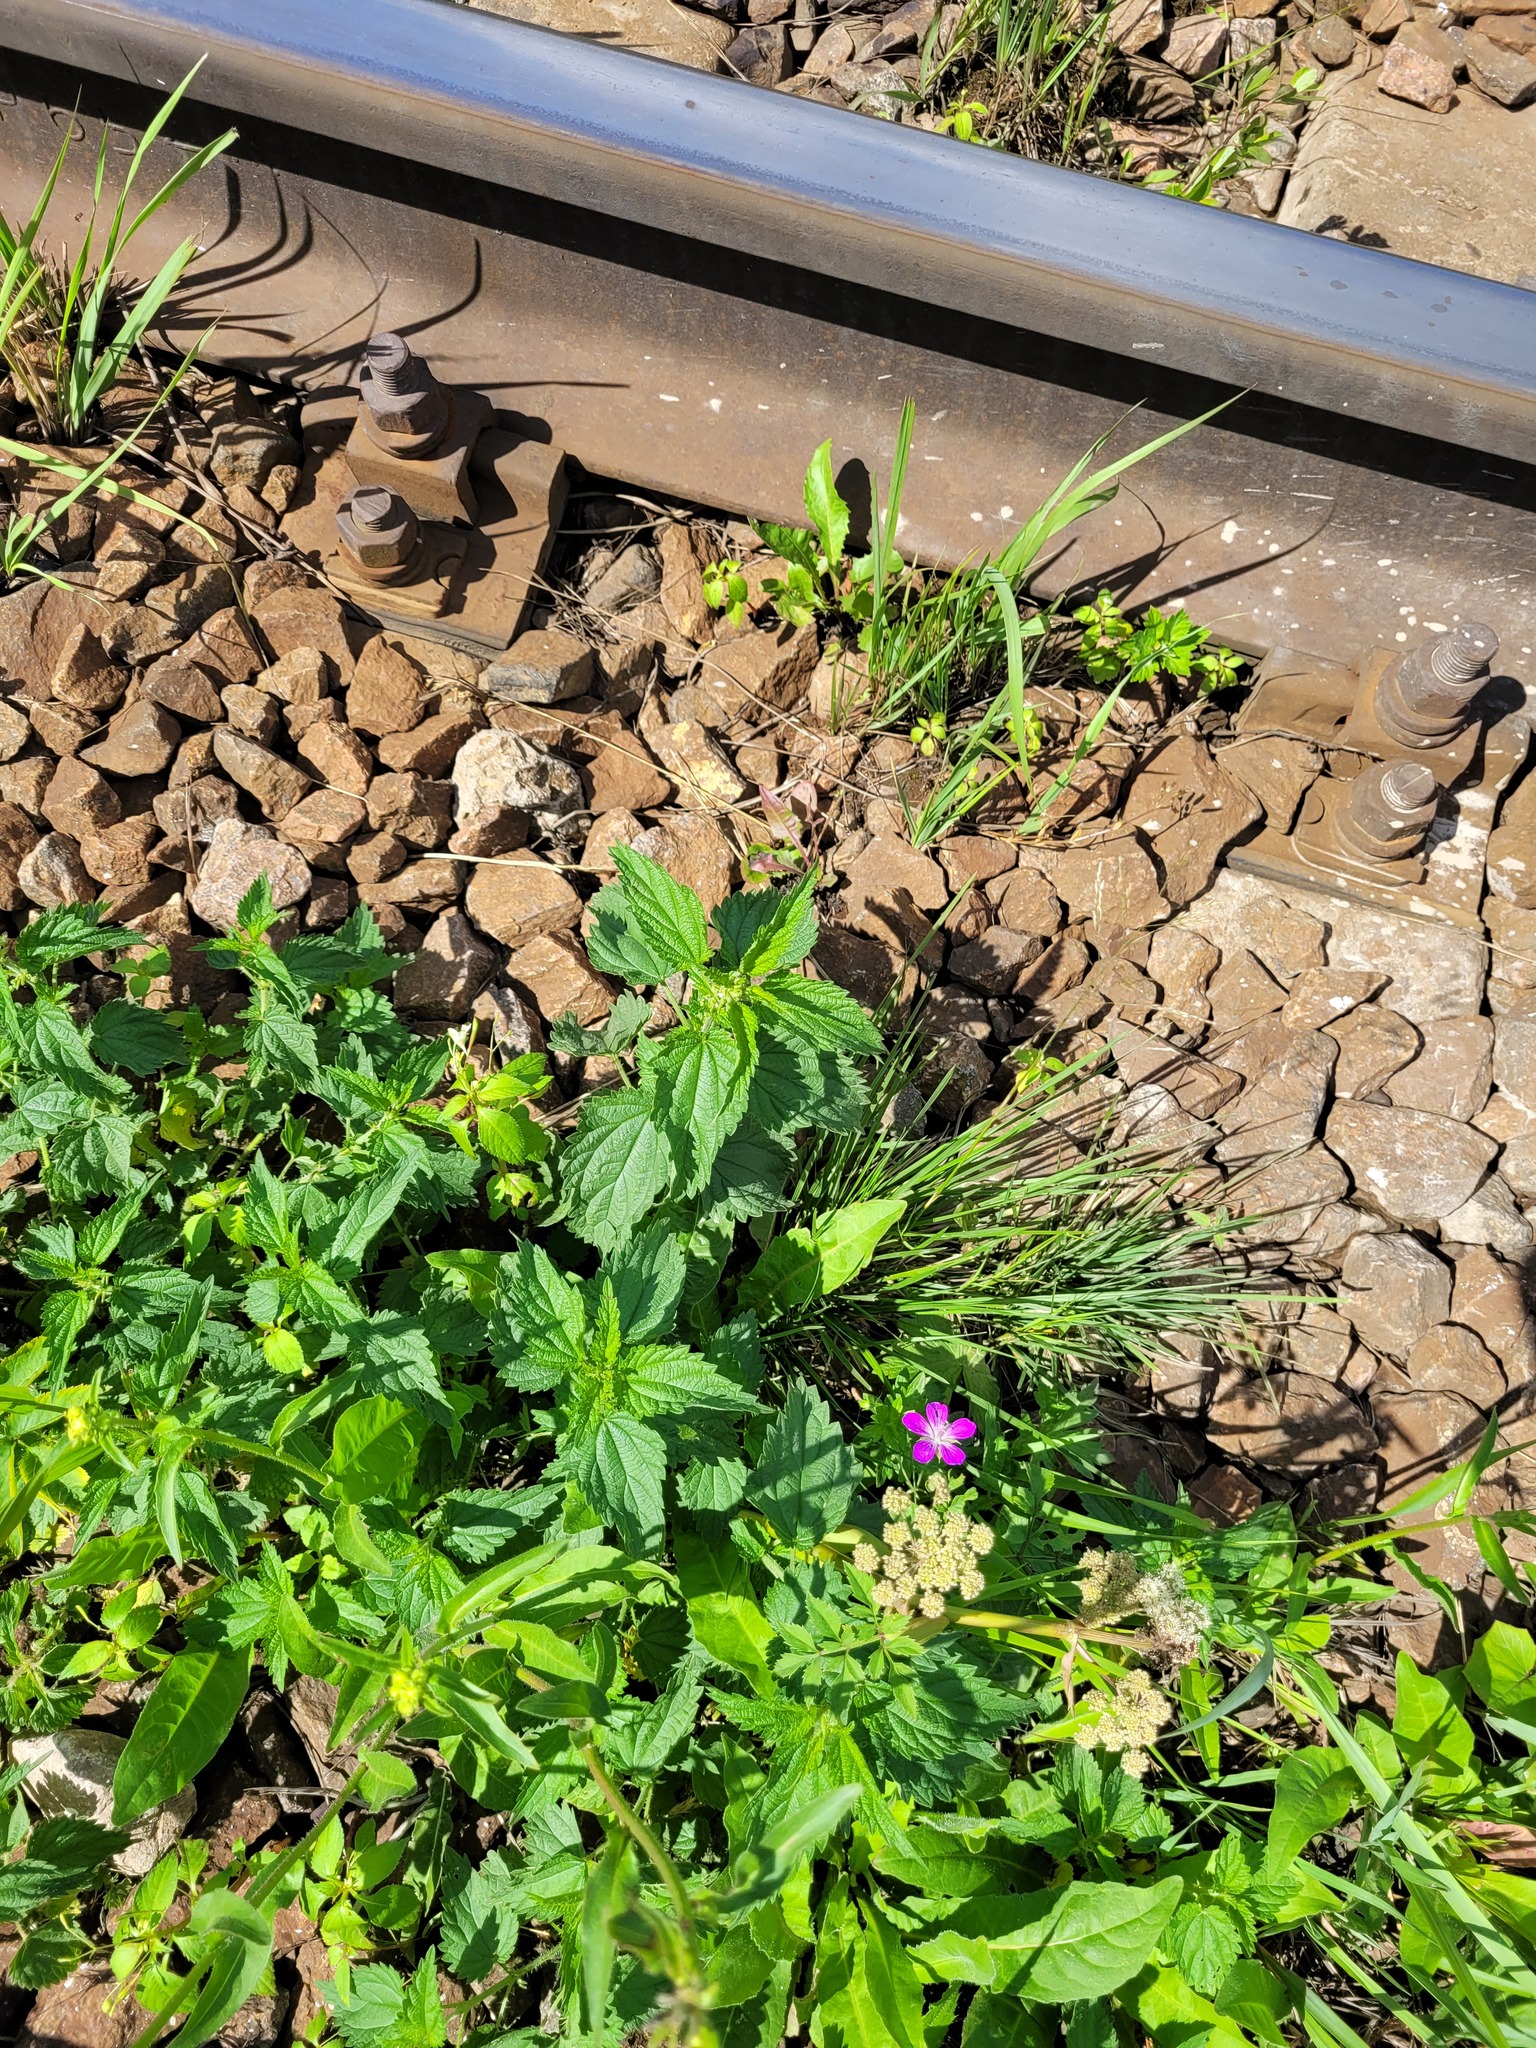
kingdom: Plantae
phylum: Tracheophyta
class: Magnoliopsida
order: Rosales
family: Urticaceae
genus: Urtica
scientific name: Urtica dioica
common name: Common nettle
